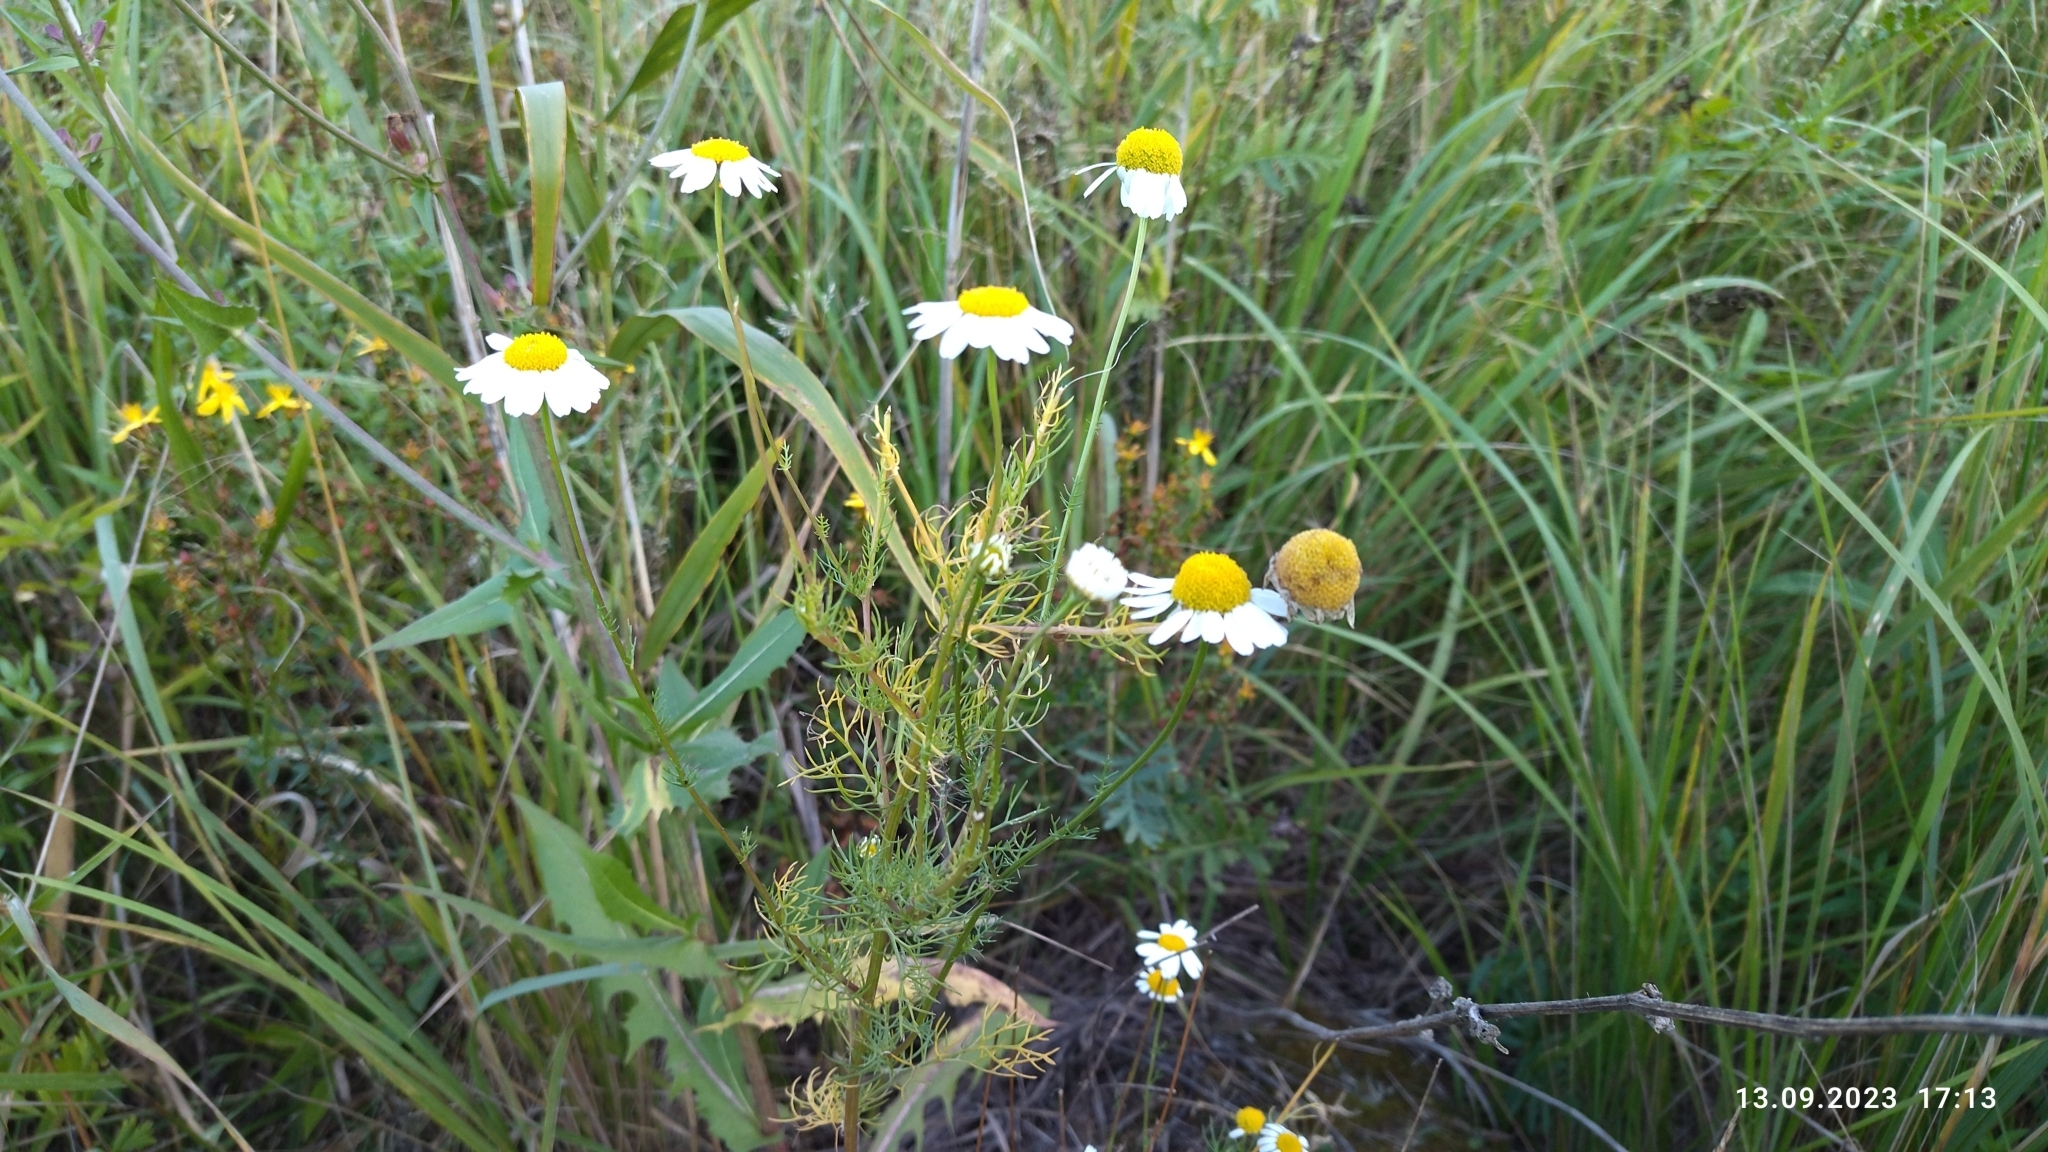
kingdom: Plantae
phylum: Tracheophyta
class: Magnoliopsida
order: Asterales
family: Asteraceae
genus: Tripleurospermum
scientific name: Tripleurospermum inodorum
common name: Scentless mayweed
